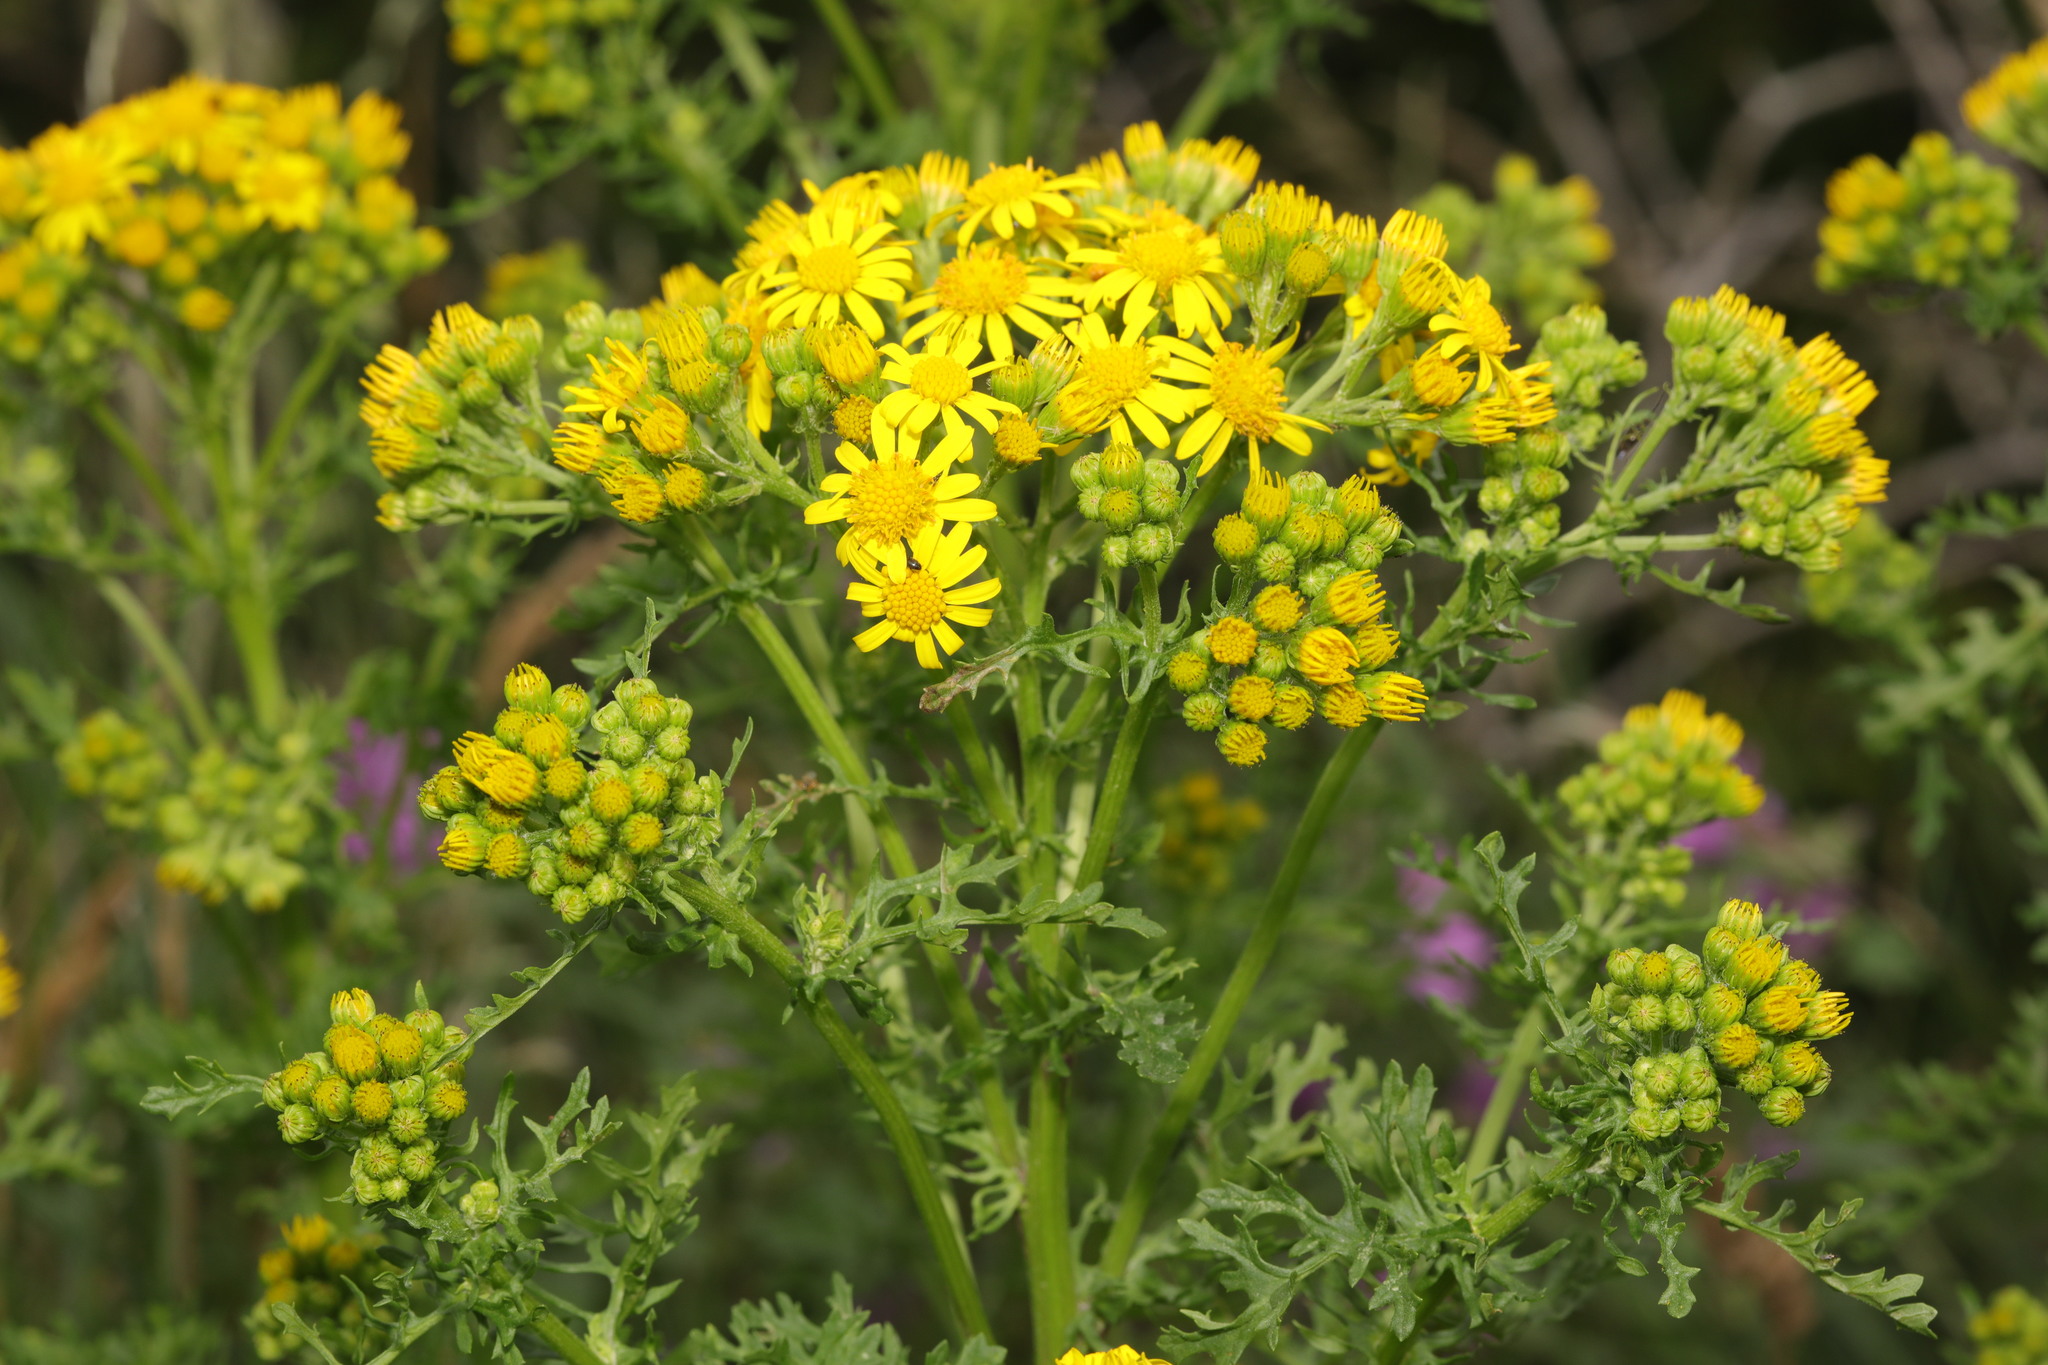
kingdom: Plantae
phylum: Tracheophyta
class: Magnoliopsida
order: Asterales
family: Asteraceae
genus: Jacobaea
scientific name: Jacobaea vulgaris
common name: Stinking willie
